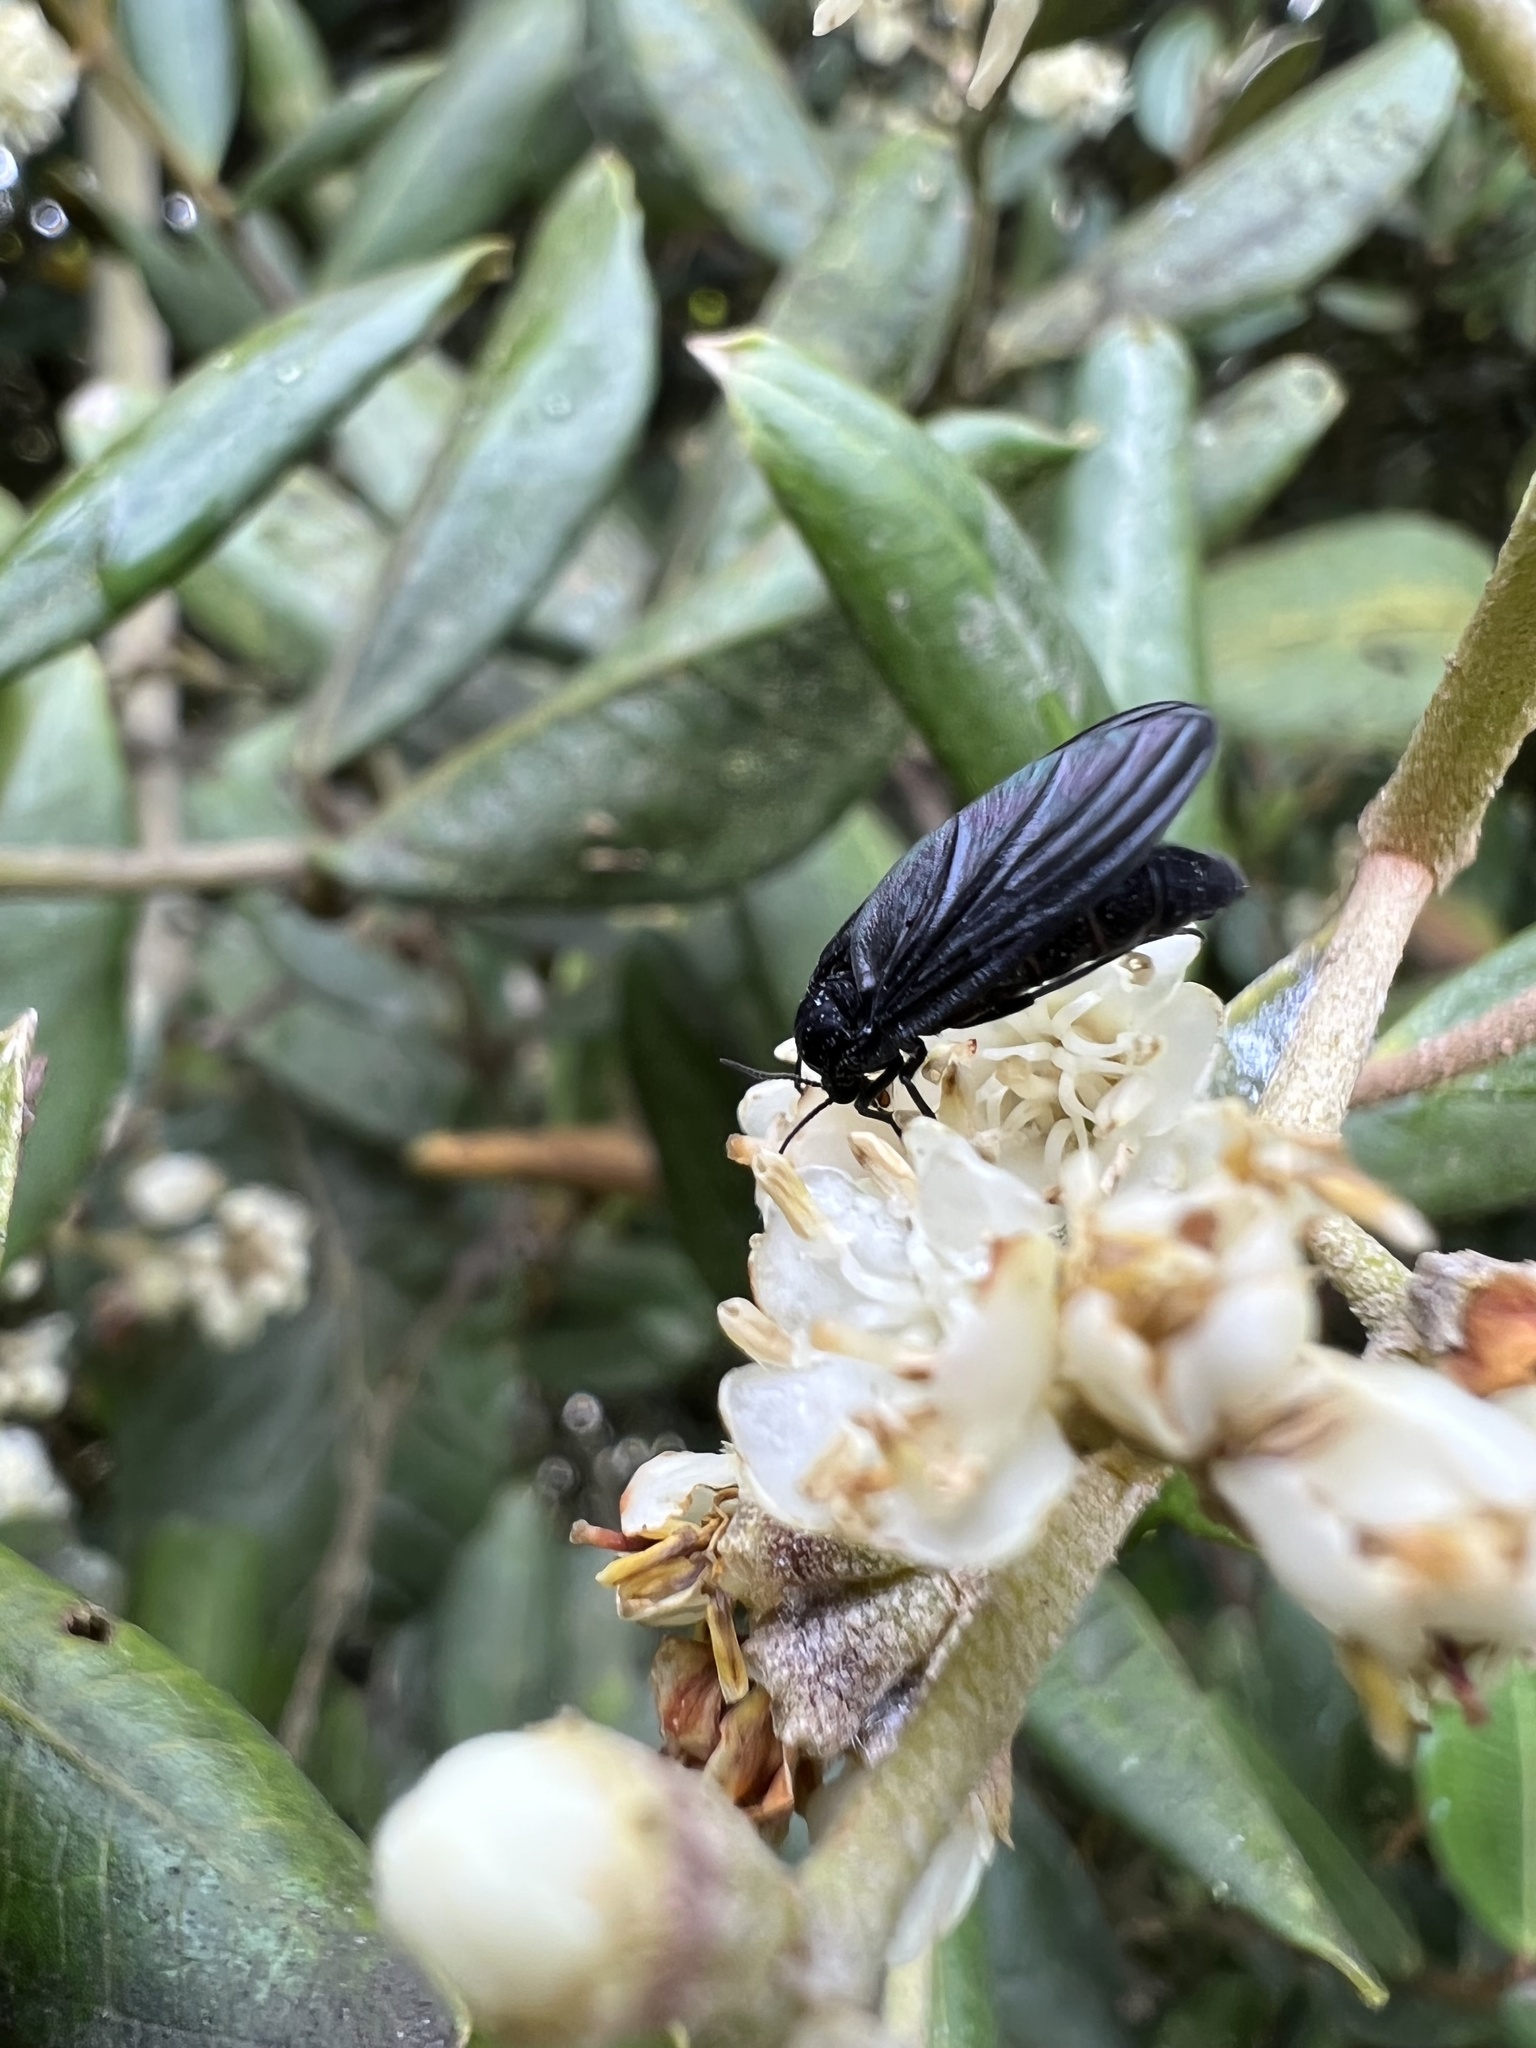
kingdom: Plantae
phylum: Tracheophyta
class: Magnoliopsida
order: Myrtales
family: Melastomataceae
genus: Miconia
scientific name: Miconia squamulosa
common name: Squamulose maya
